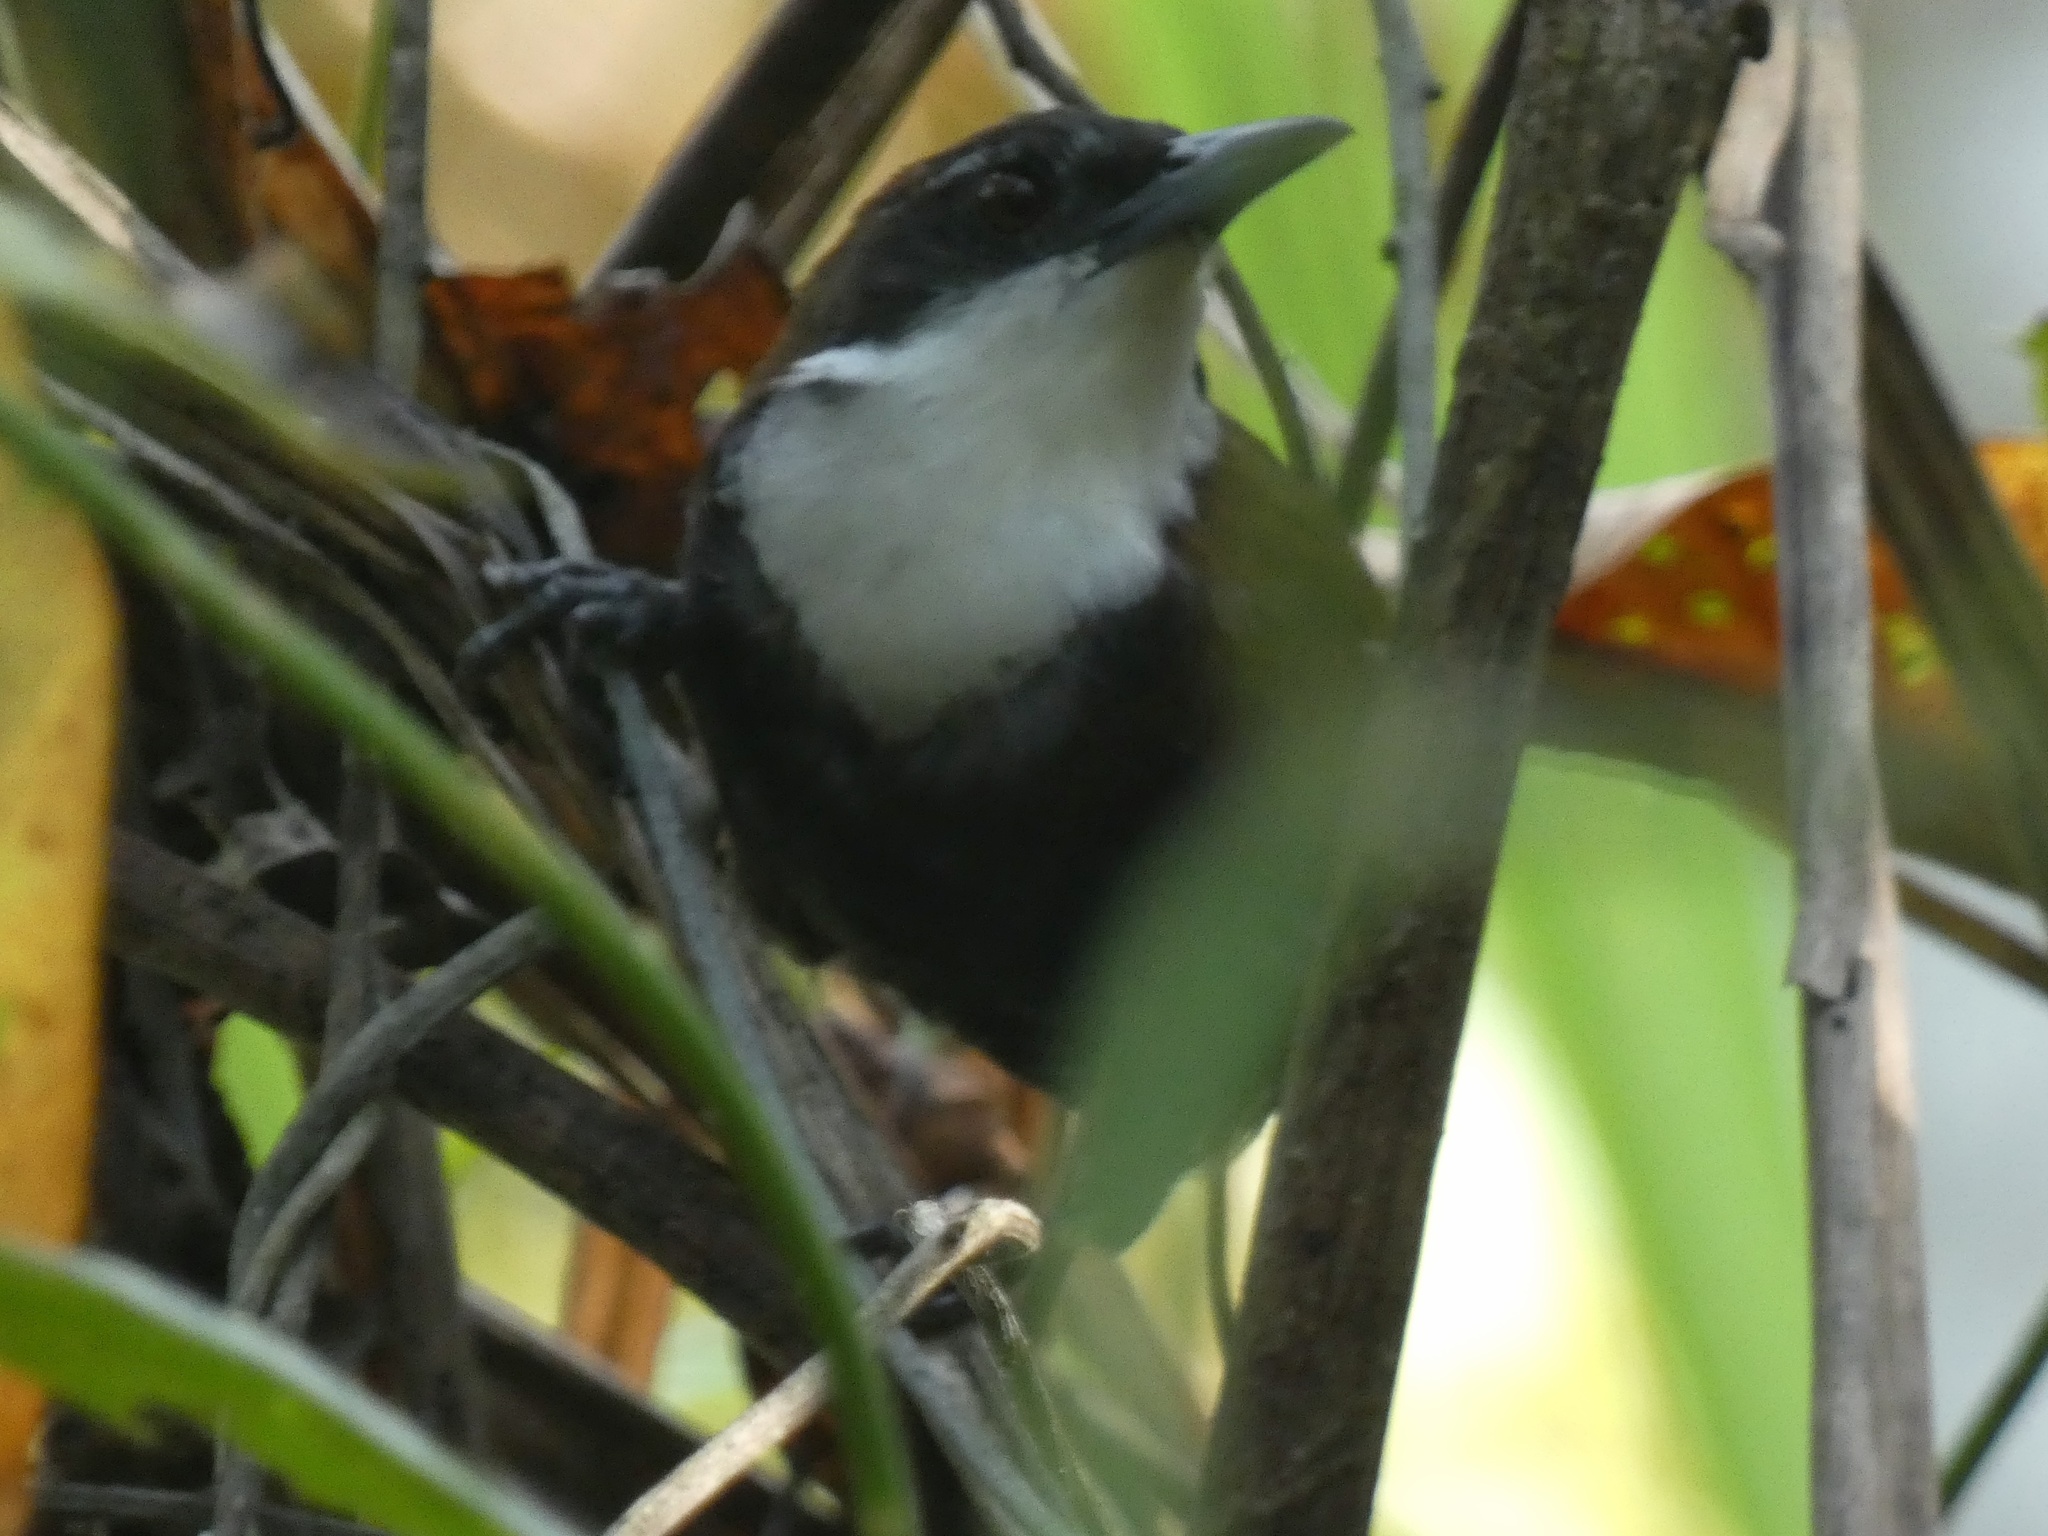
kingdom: Animalia
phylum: Chordata
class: Aves
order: Passeriformes
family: Thamnophilidae
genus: Gymnopithys
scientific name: Gymnopithys leucaspis
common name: White-cheeked antbird
